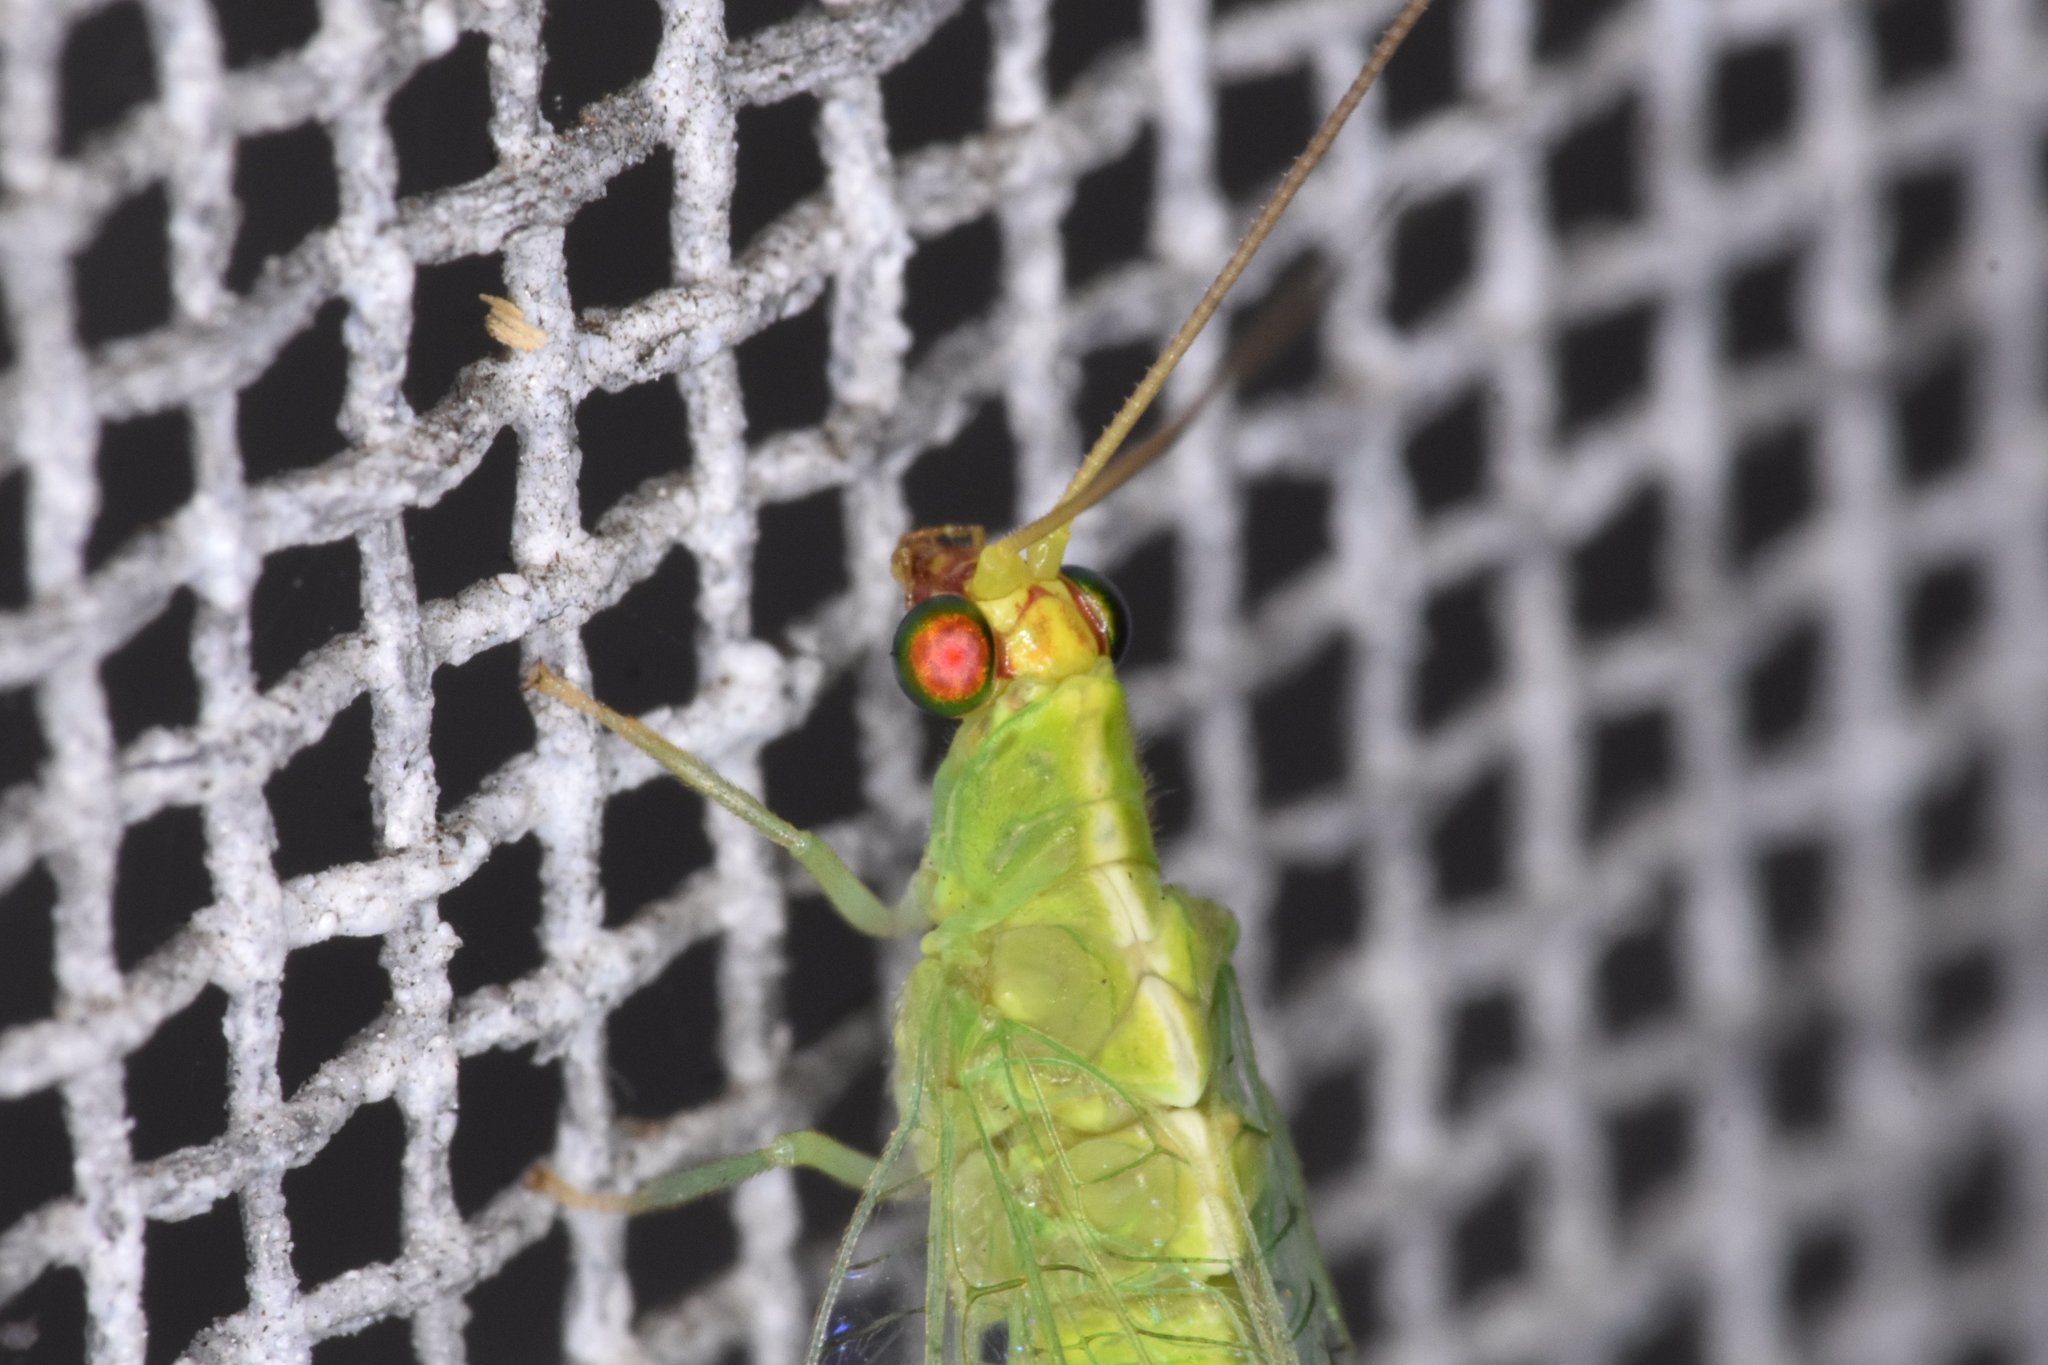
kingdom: Animalia
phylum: Arthropoda
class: Insecta
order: Neuroptera
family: Chrysopidae
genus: Chrysopodes
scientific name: Chrysopodes collaris
